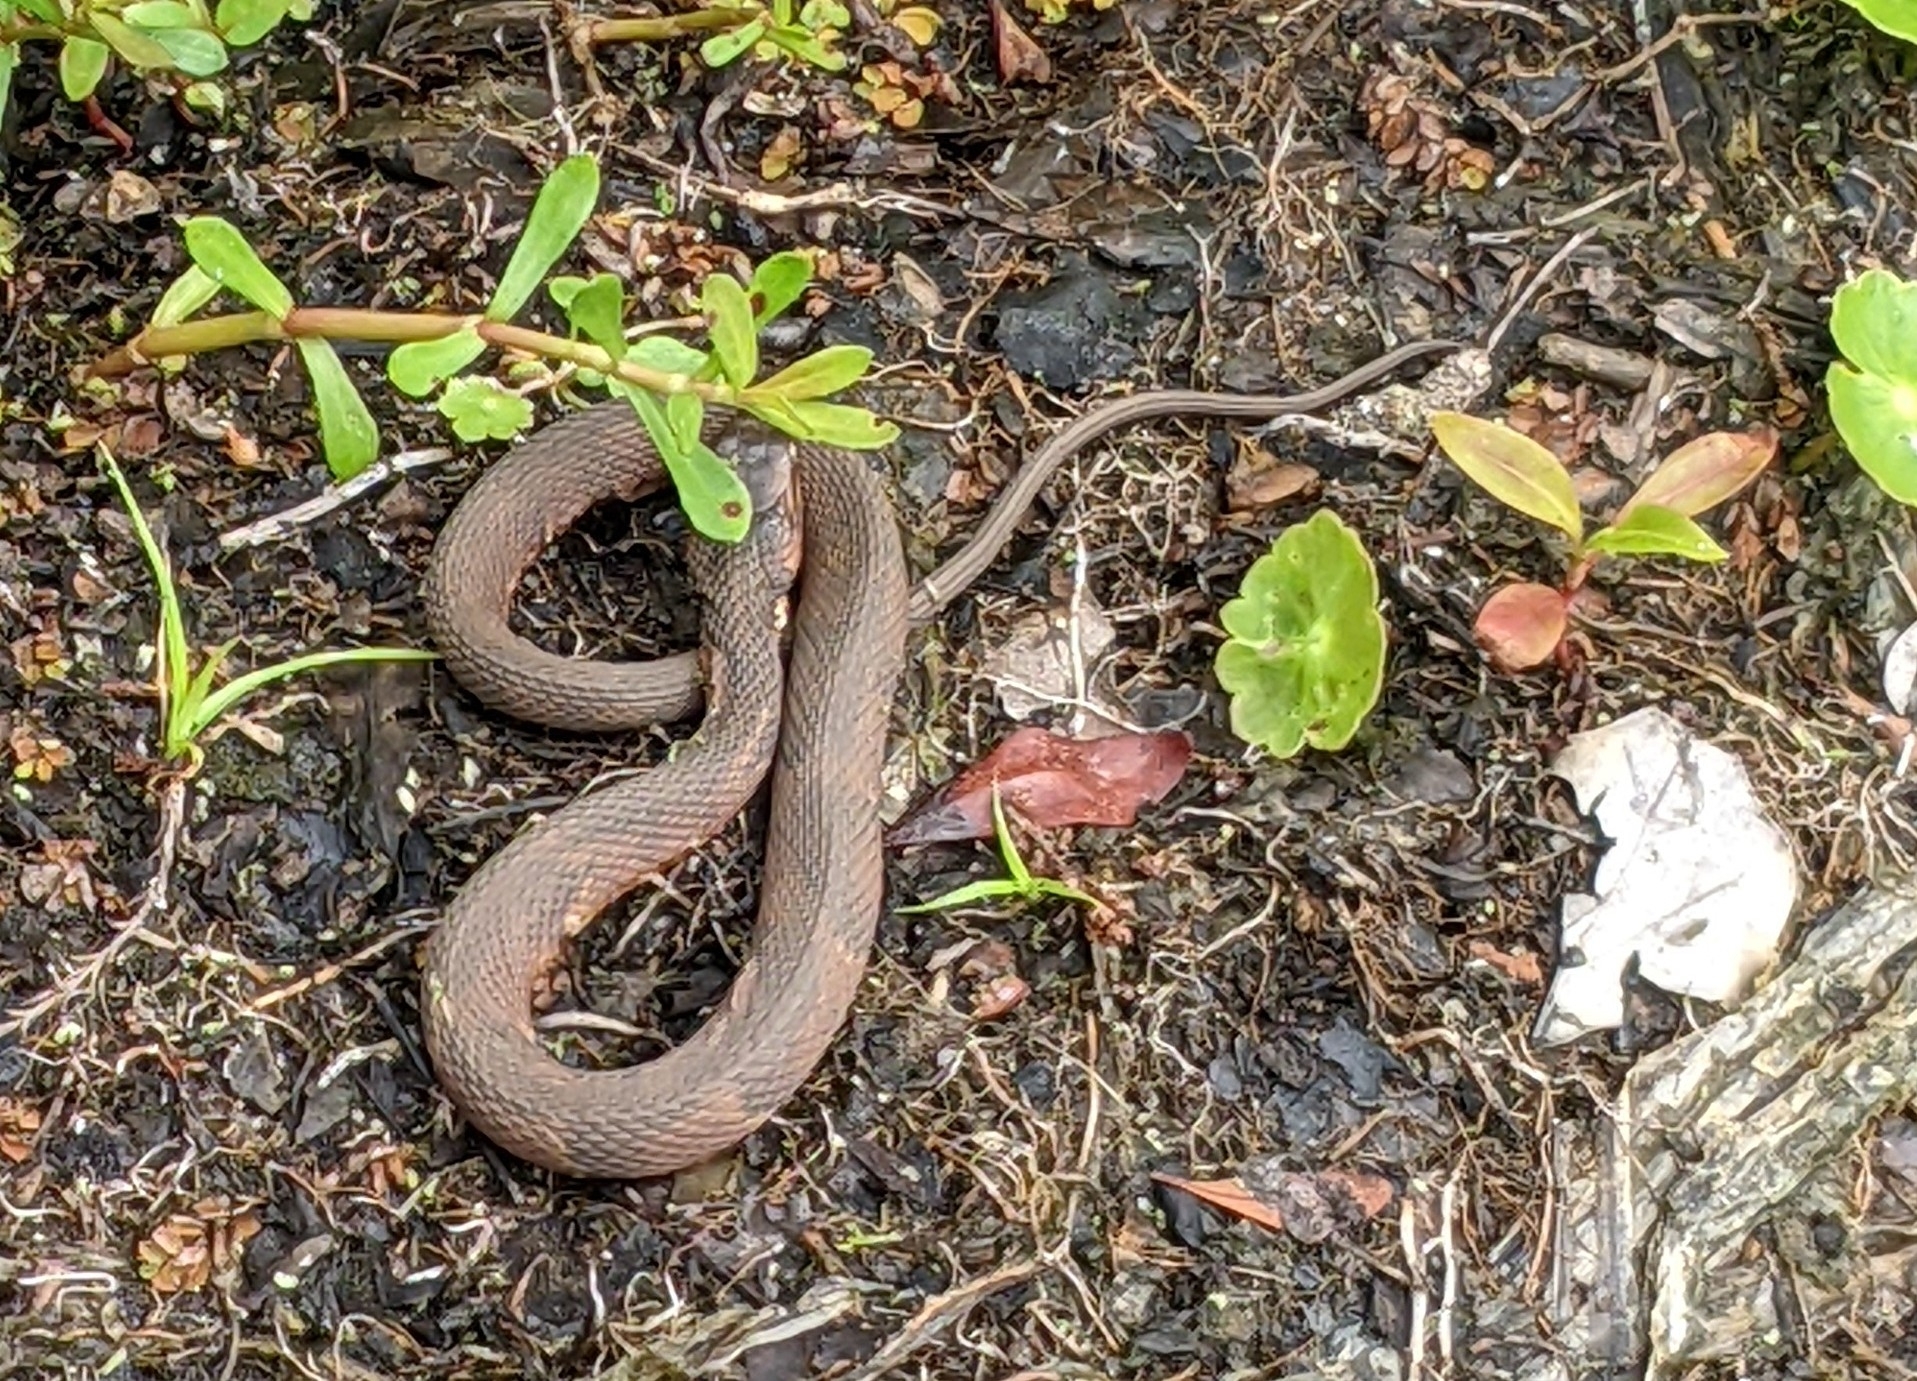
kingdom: Animalia
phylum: Chordata
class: Squamata
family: Colubridae
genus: Nerodia
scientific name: Nerodia fasciata
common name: Southern water snake
